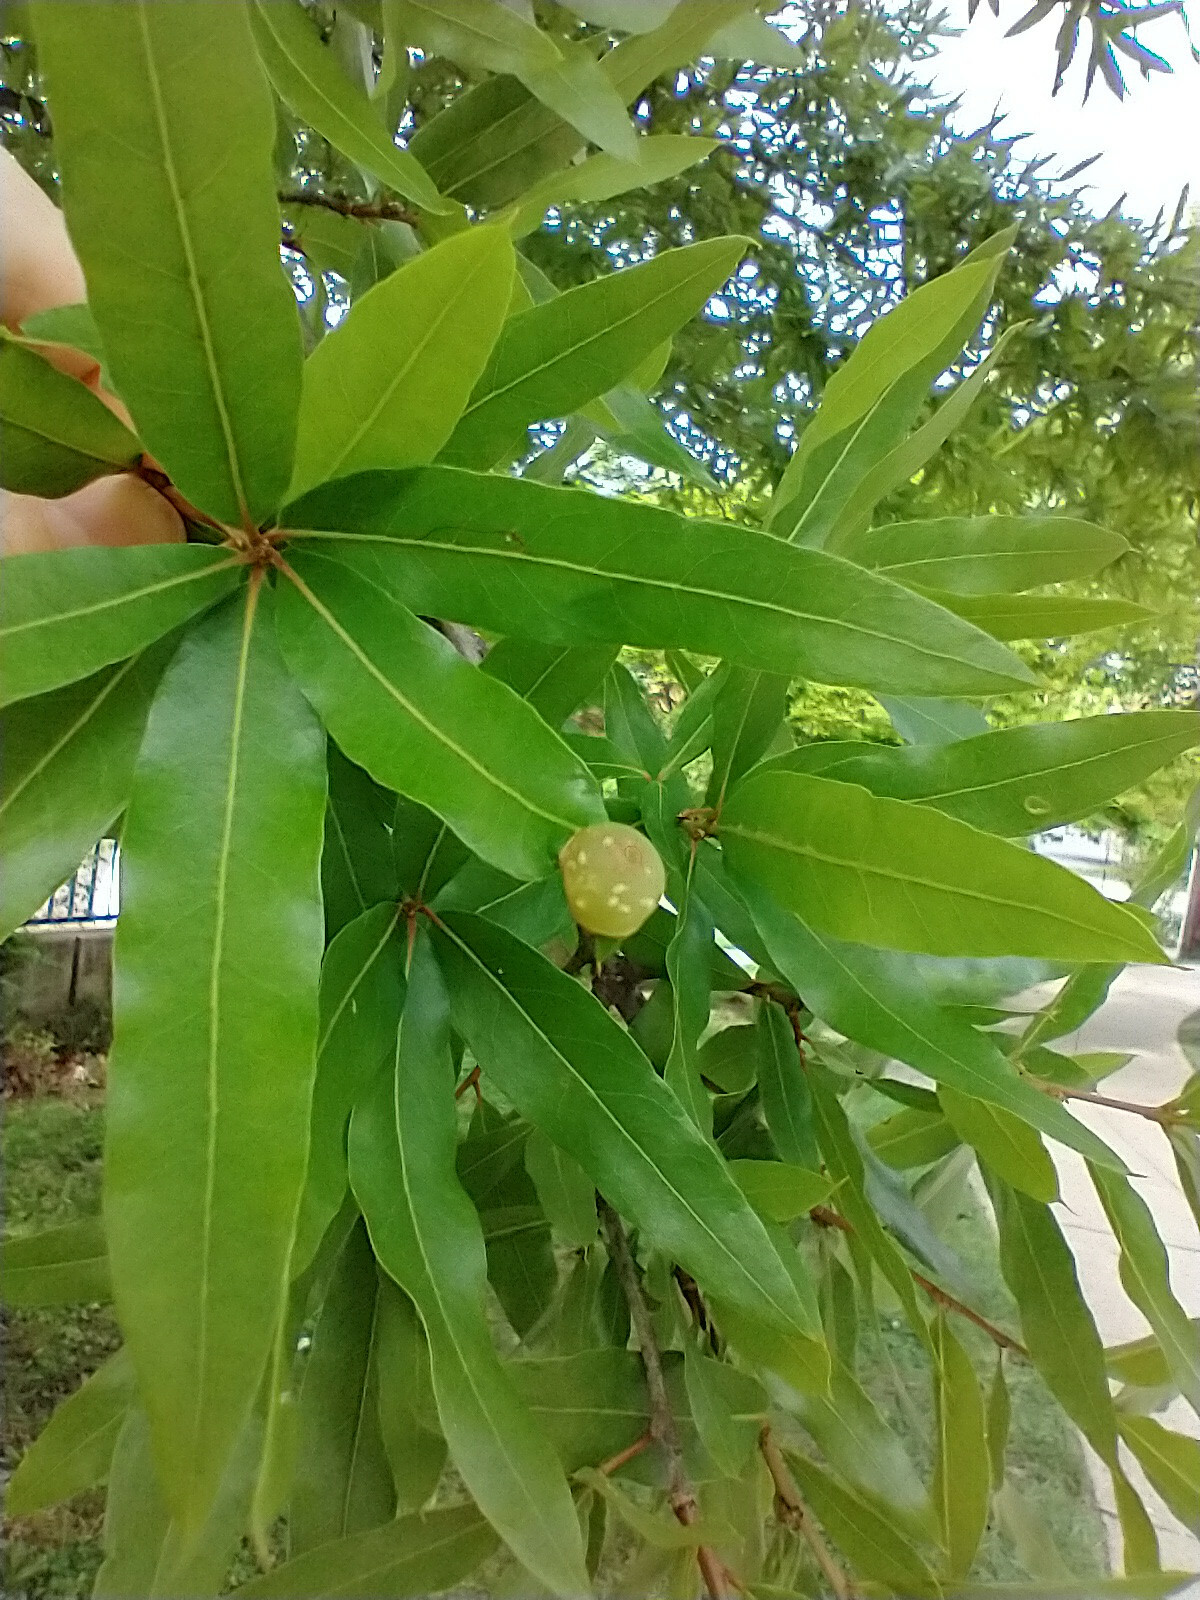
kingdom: Animalia
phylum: Arthropoda
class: Insecta
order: Hymenoptera
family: Cynipidae
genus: Dryocosmus
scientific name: Dryocosmus
